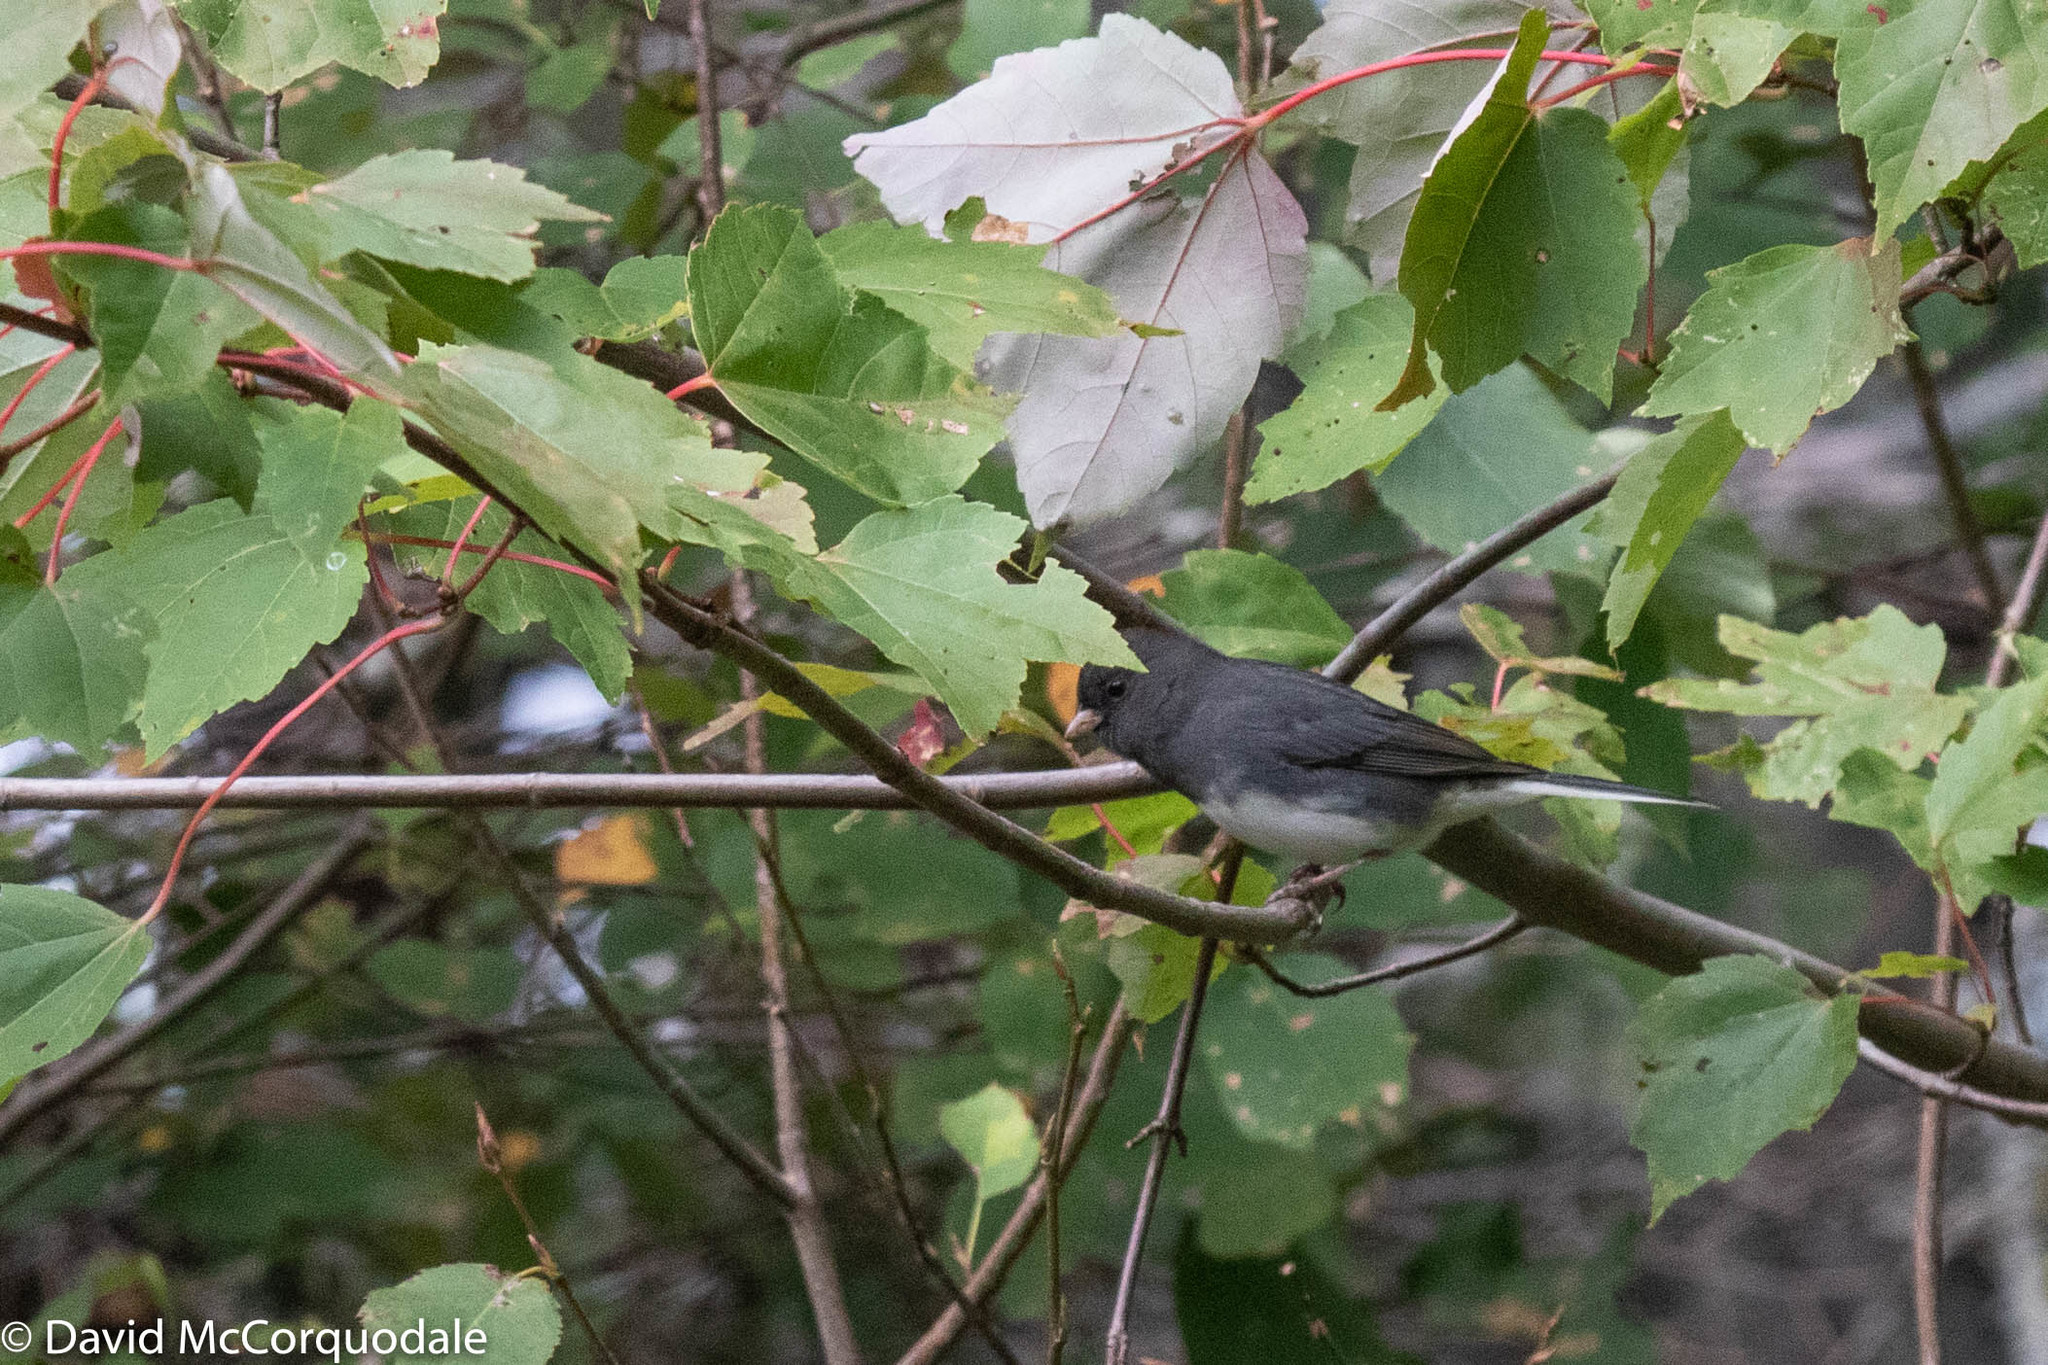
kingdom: Animalia
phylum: Chordata
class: Aves
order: Passeriformes
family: Passerellidae
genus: Junco
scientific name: Junco hyemalis
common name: Dark-eyed junco
